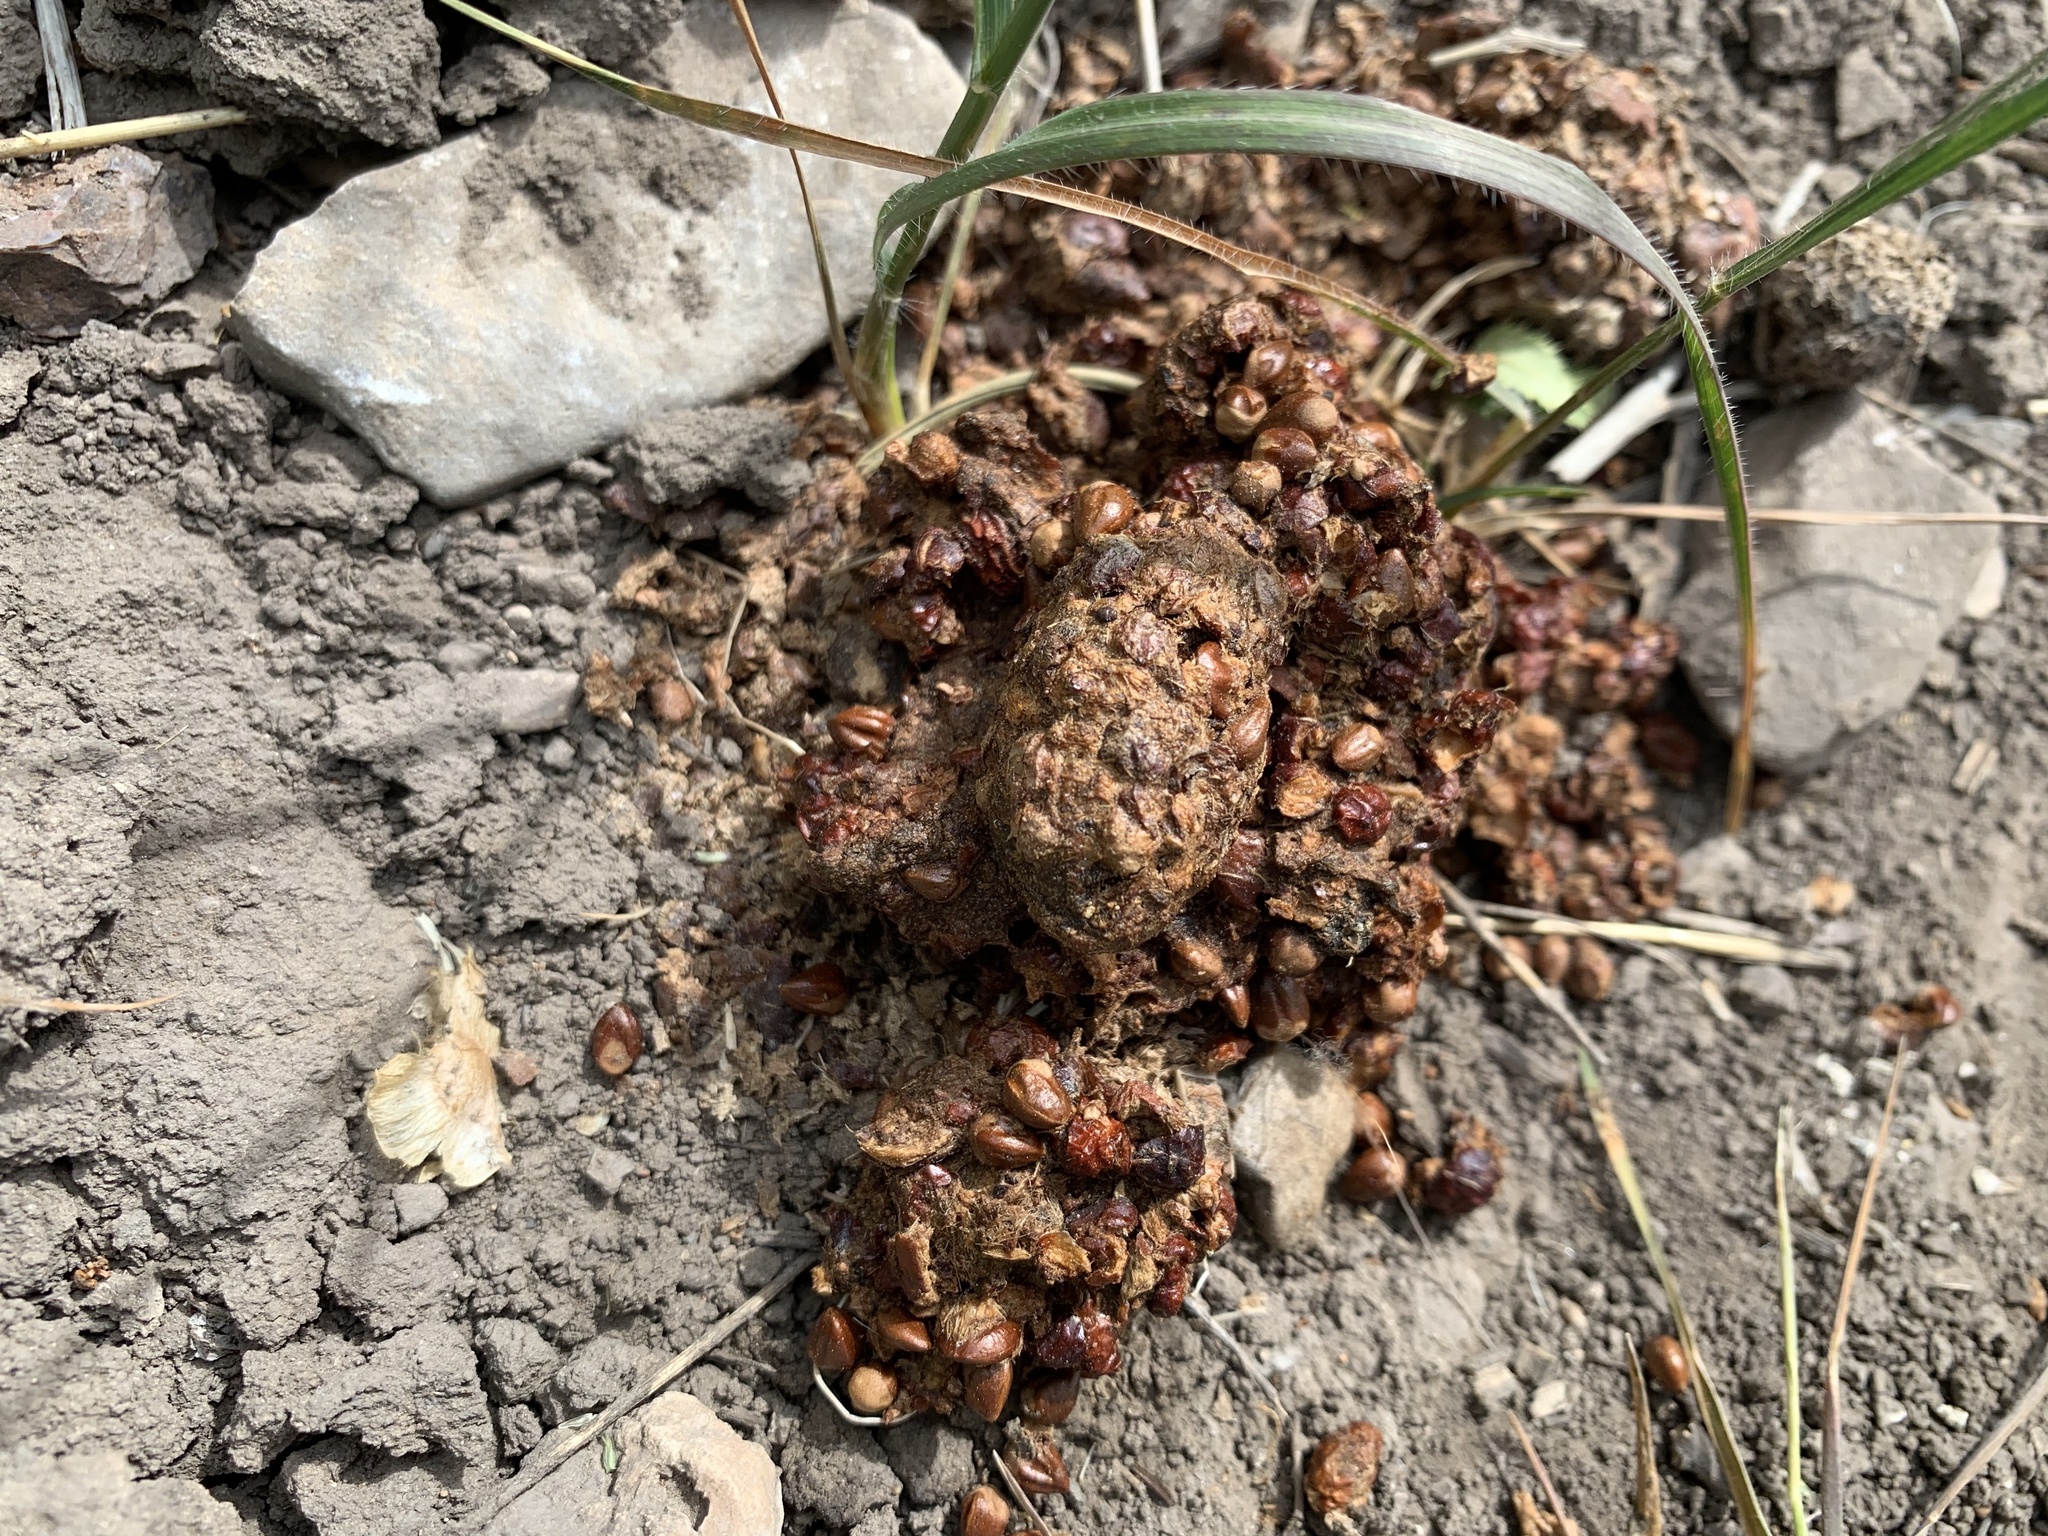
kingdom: Animalia
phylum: Chordata
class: Mammalia
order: Carnivora
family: Ursidae
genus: Ursus
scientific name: Ursus americanus
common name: American black bear
